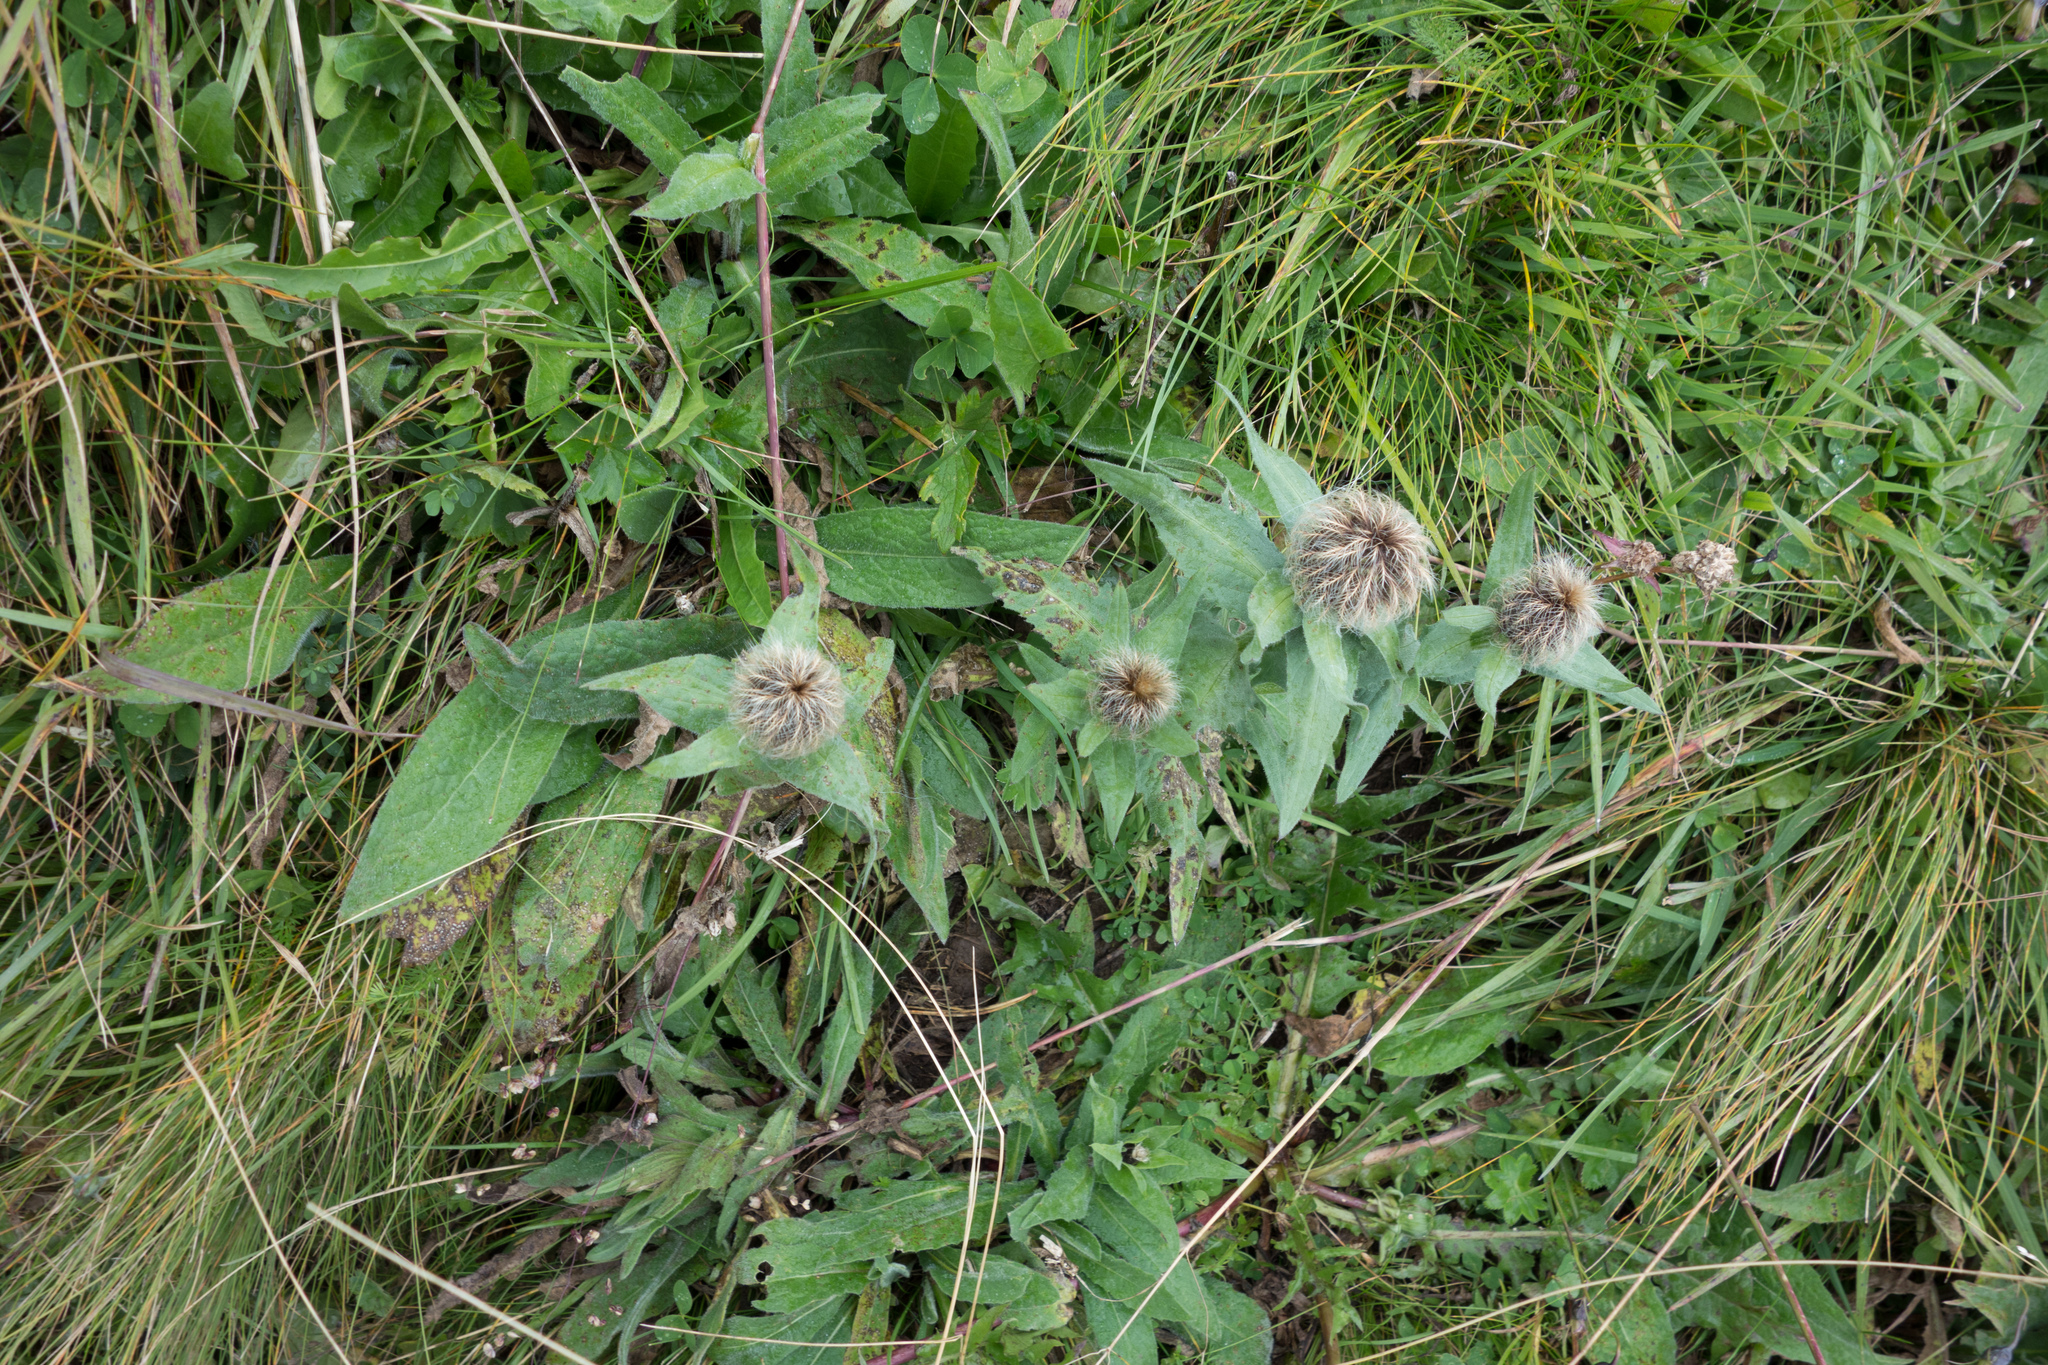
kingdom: Plantae
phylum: Tracheophyta
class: Magnoliopsida
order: Asterales
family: Asteraceae
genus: Centaurea
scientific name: Centaurea nervosa
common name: Singleflower knapweed
